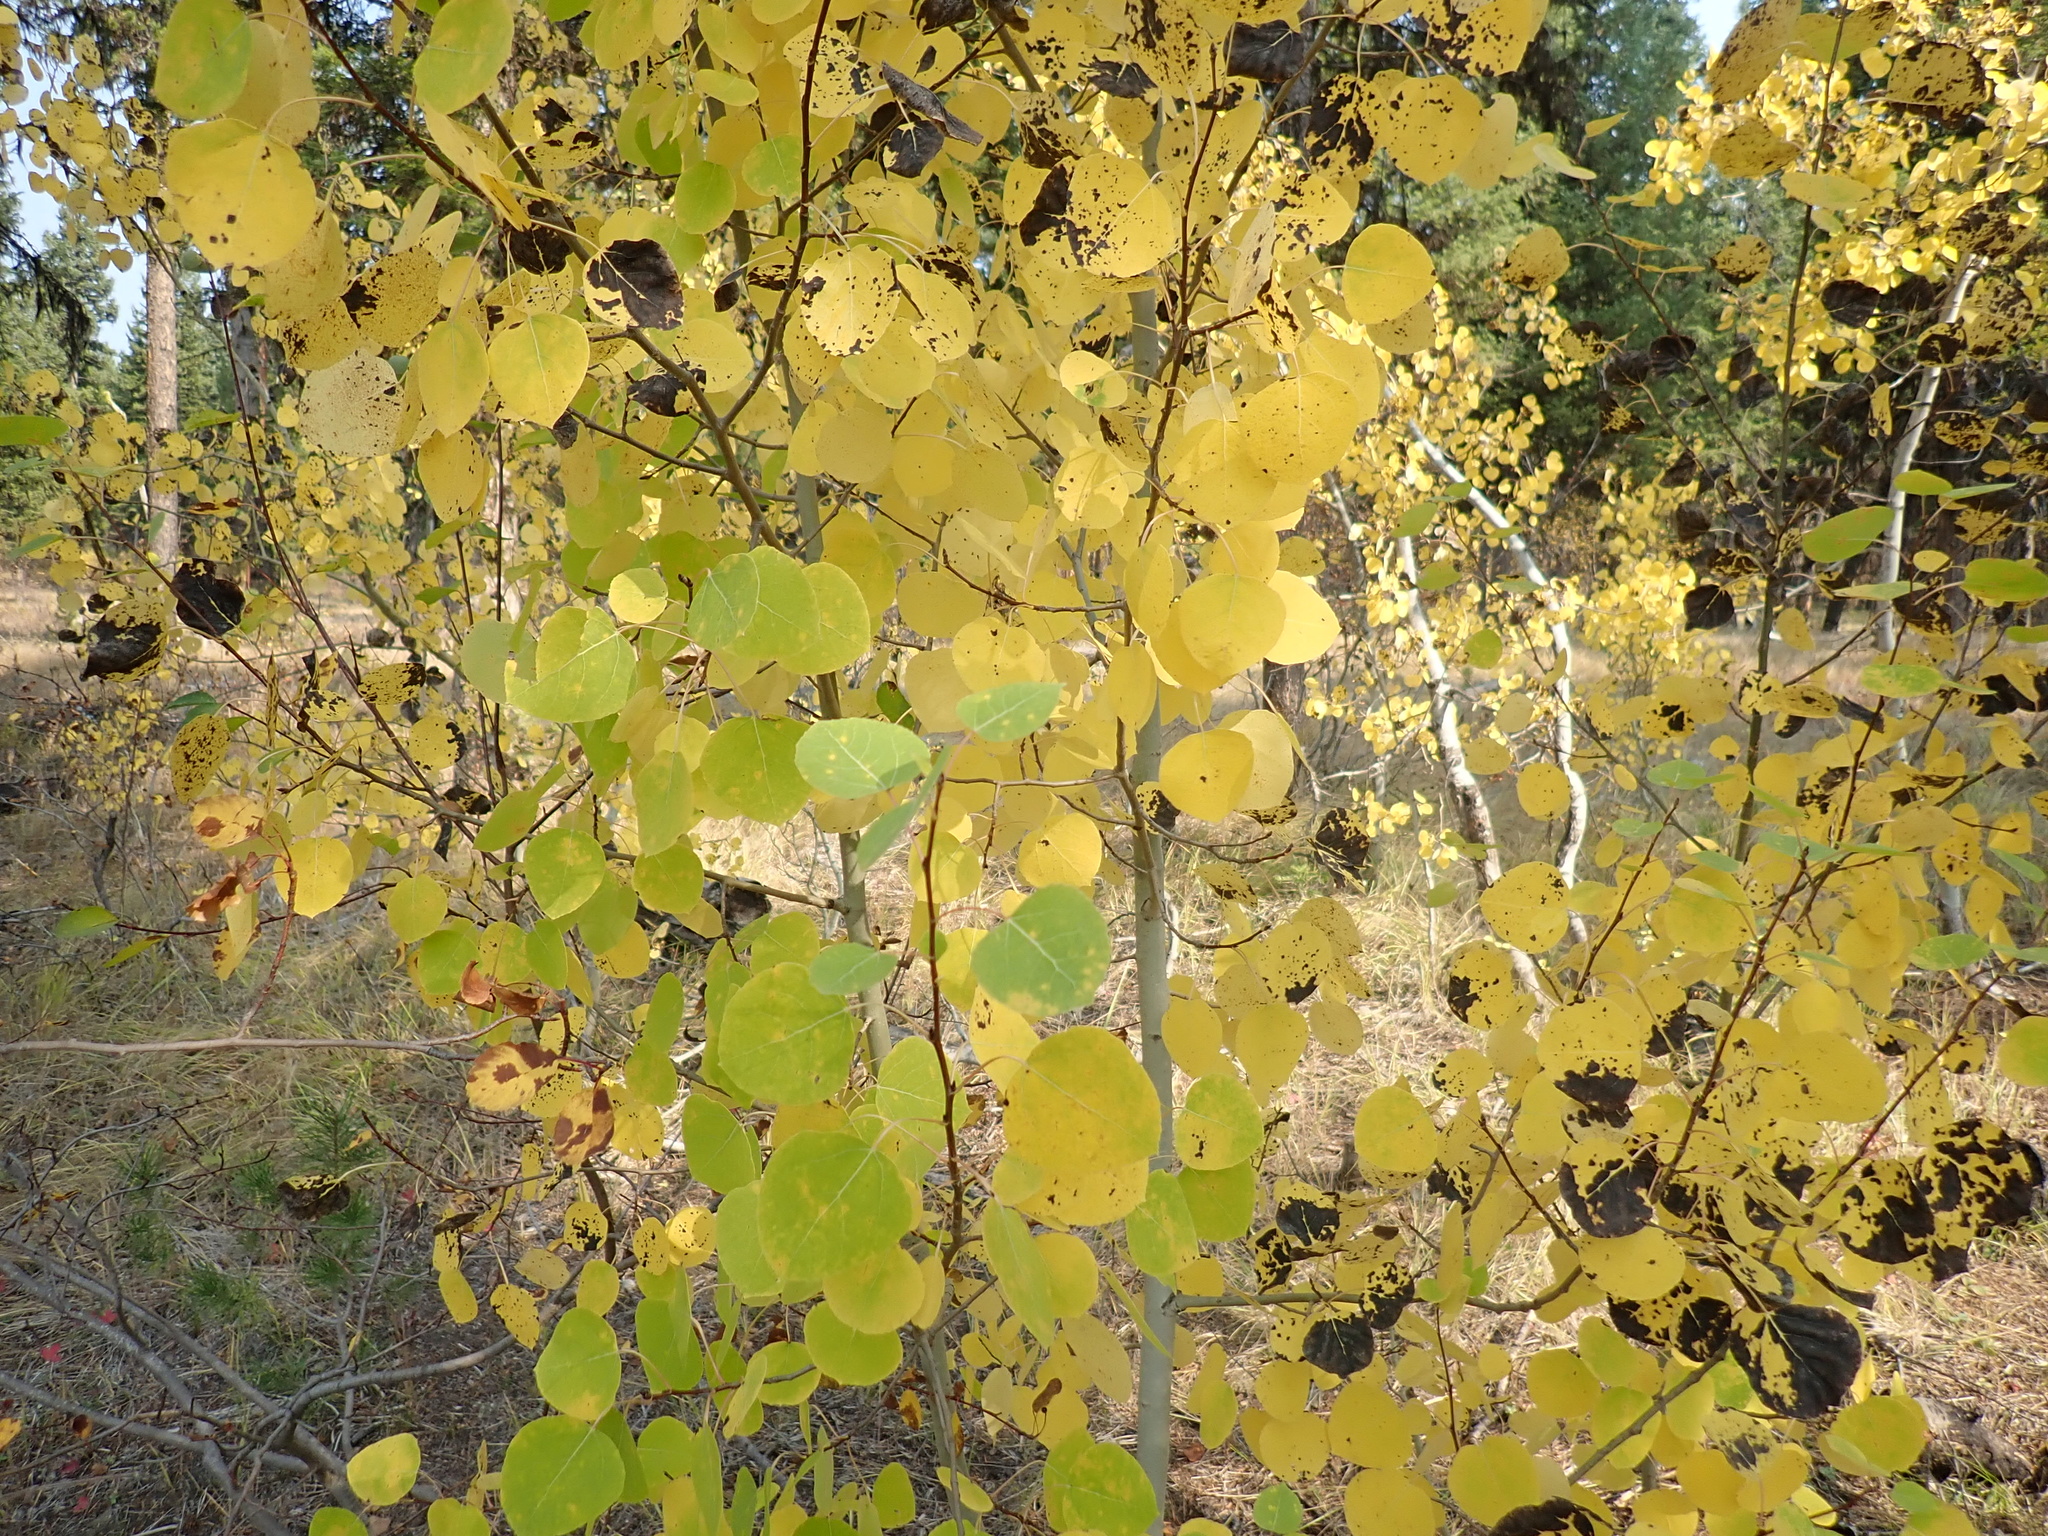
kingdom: Plantae
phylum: Tracheophyta
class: Magnoliopsida
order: Malpighiales
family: Salicaceae
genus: Populus
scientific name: Populus tremuloides
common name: Quaking aspen
